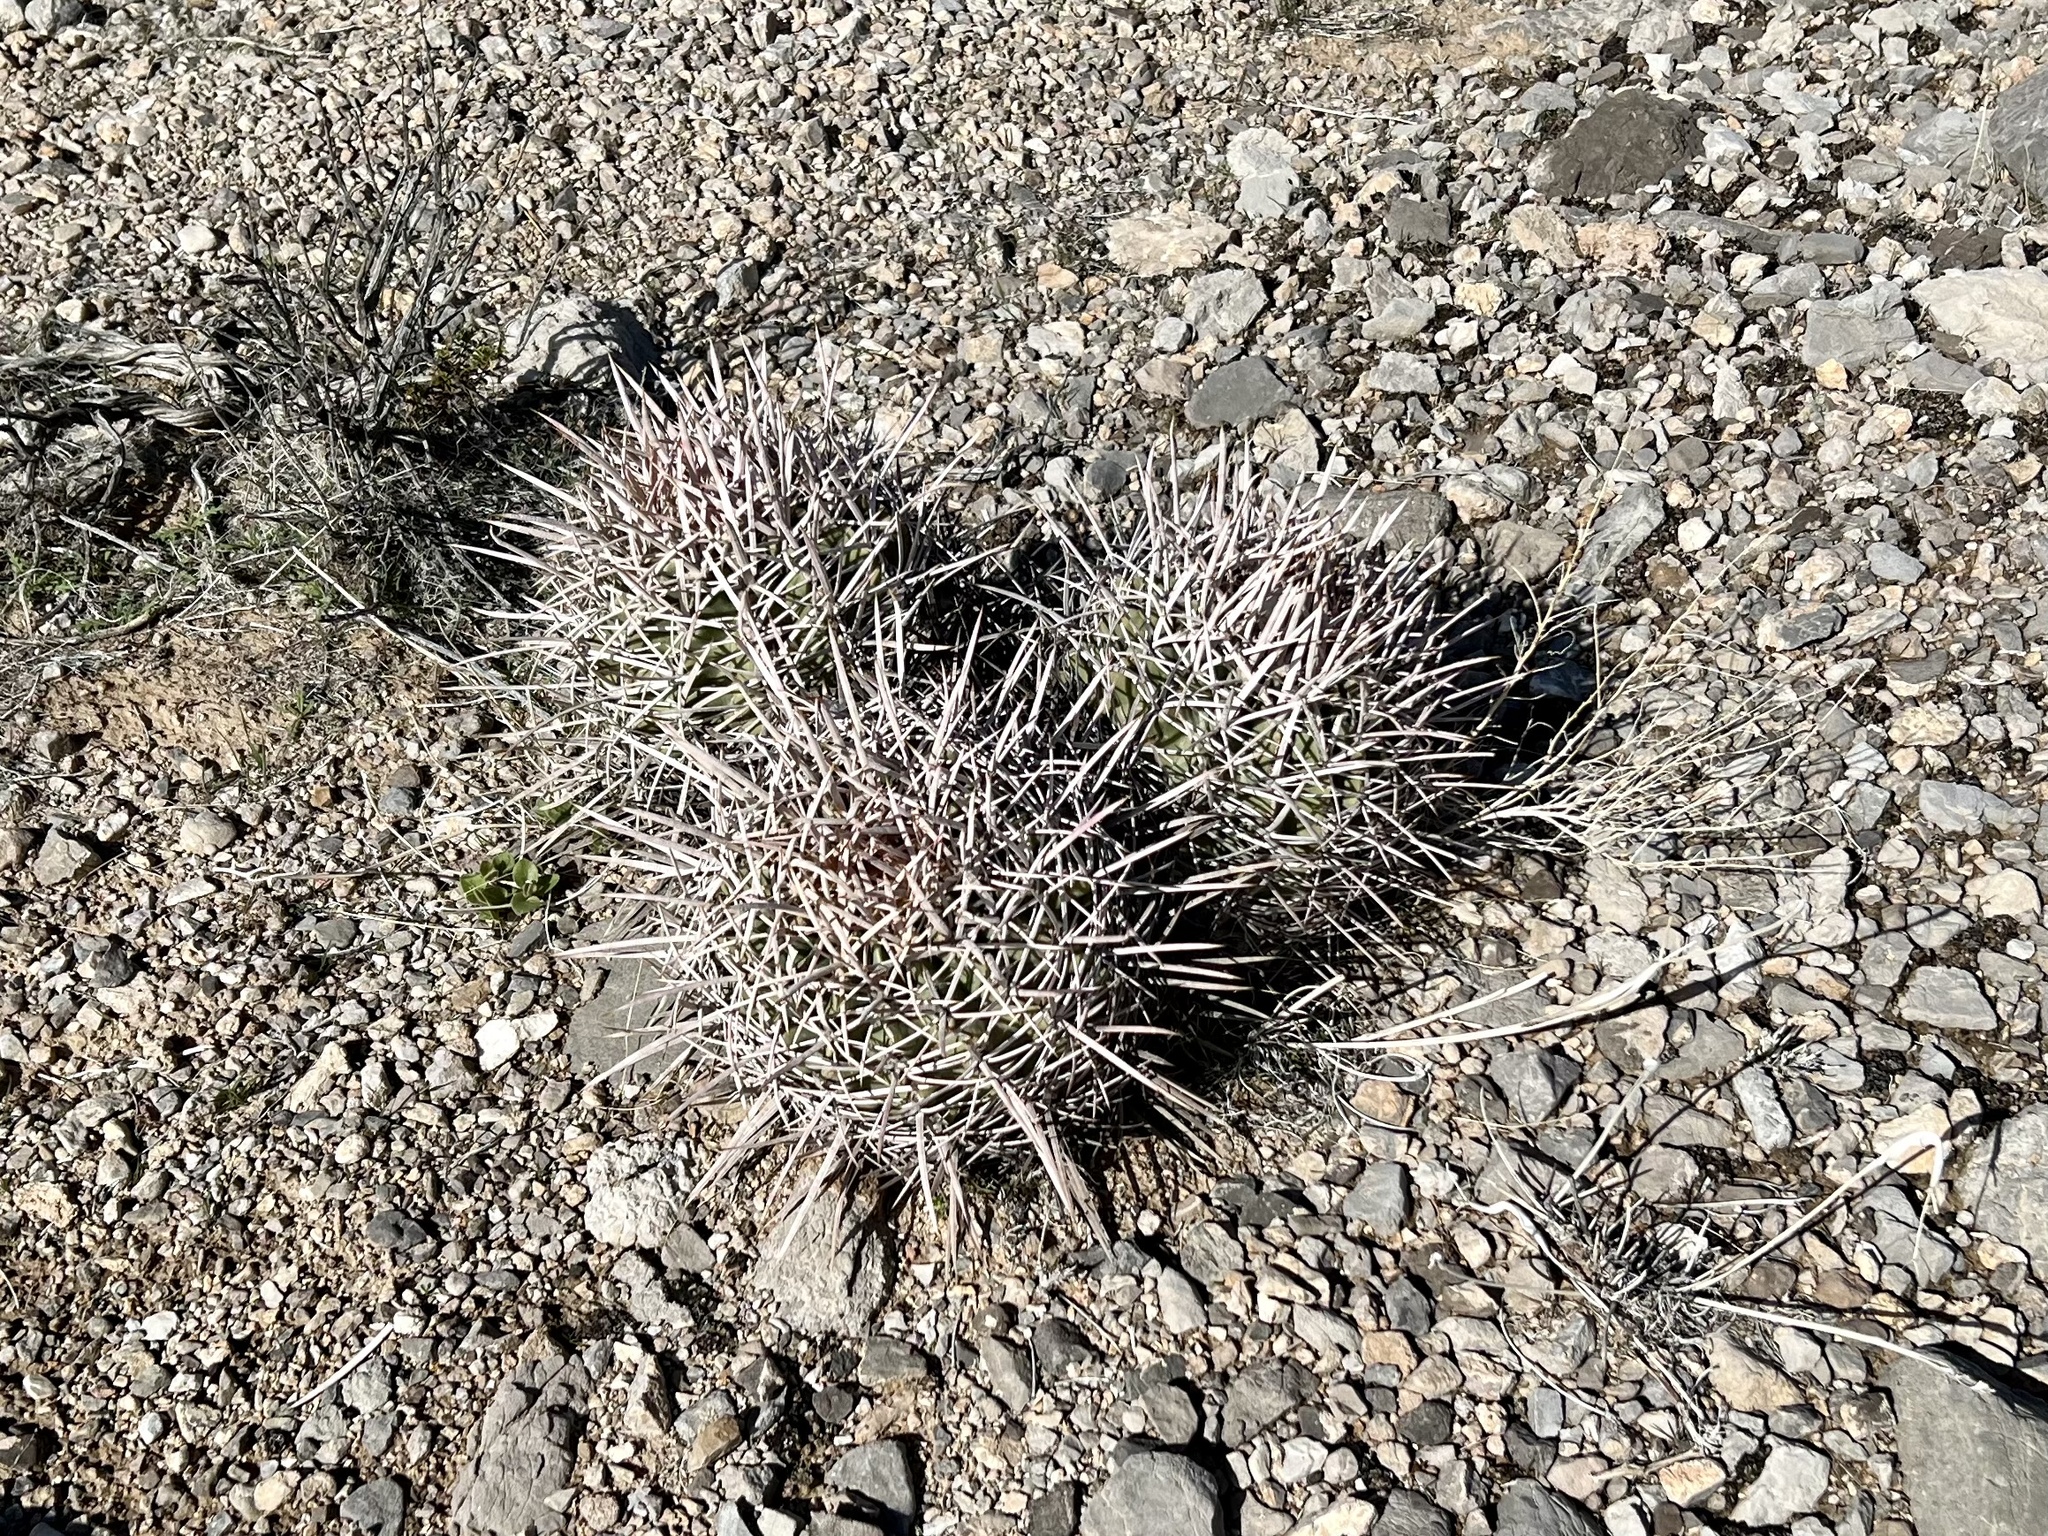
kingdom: Plantae
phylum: Tracheophyta
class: Magnoliopsida
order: Caryophyllales
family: Cactaceae
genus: Echinocactus
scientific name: Echinocactus polycephalus
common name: Cottontop cactus
